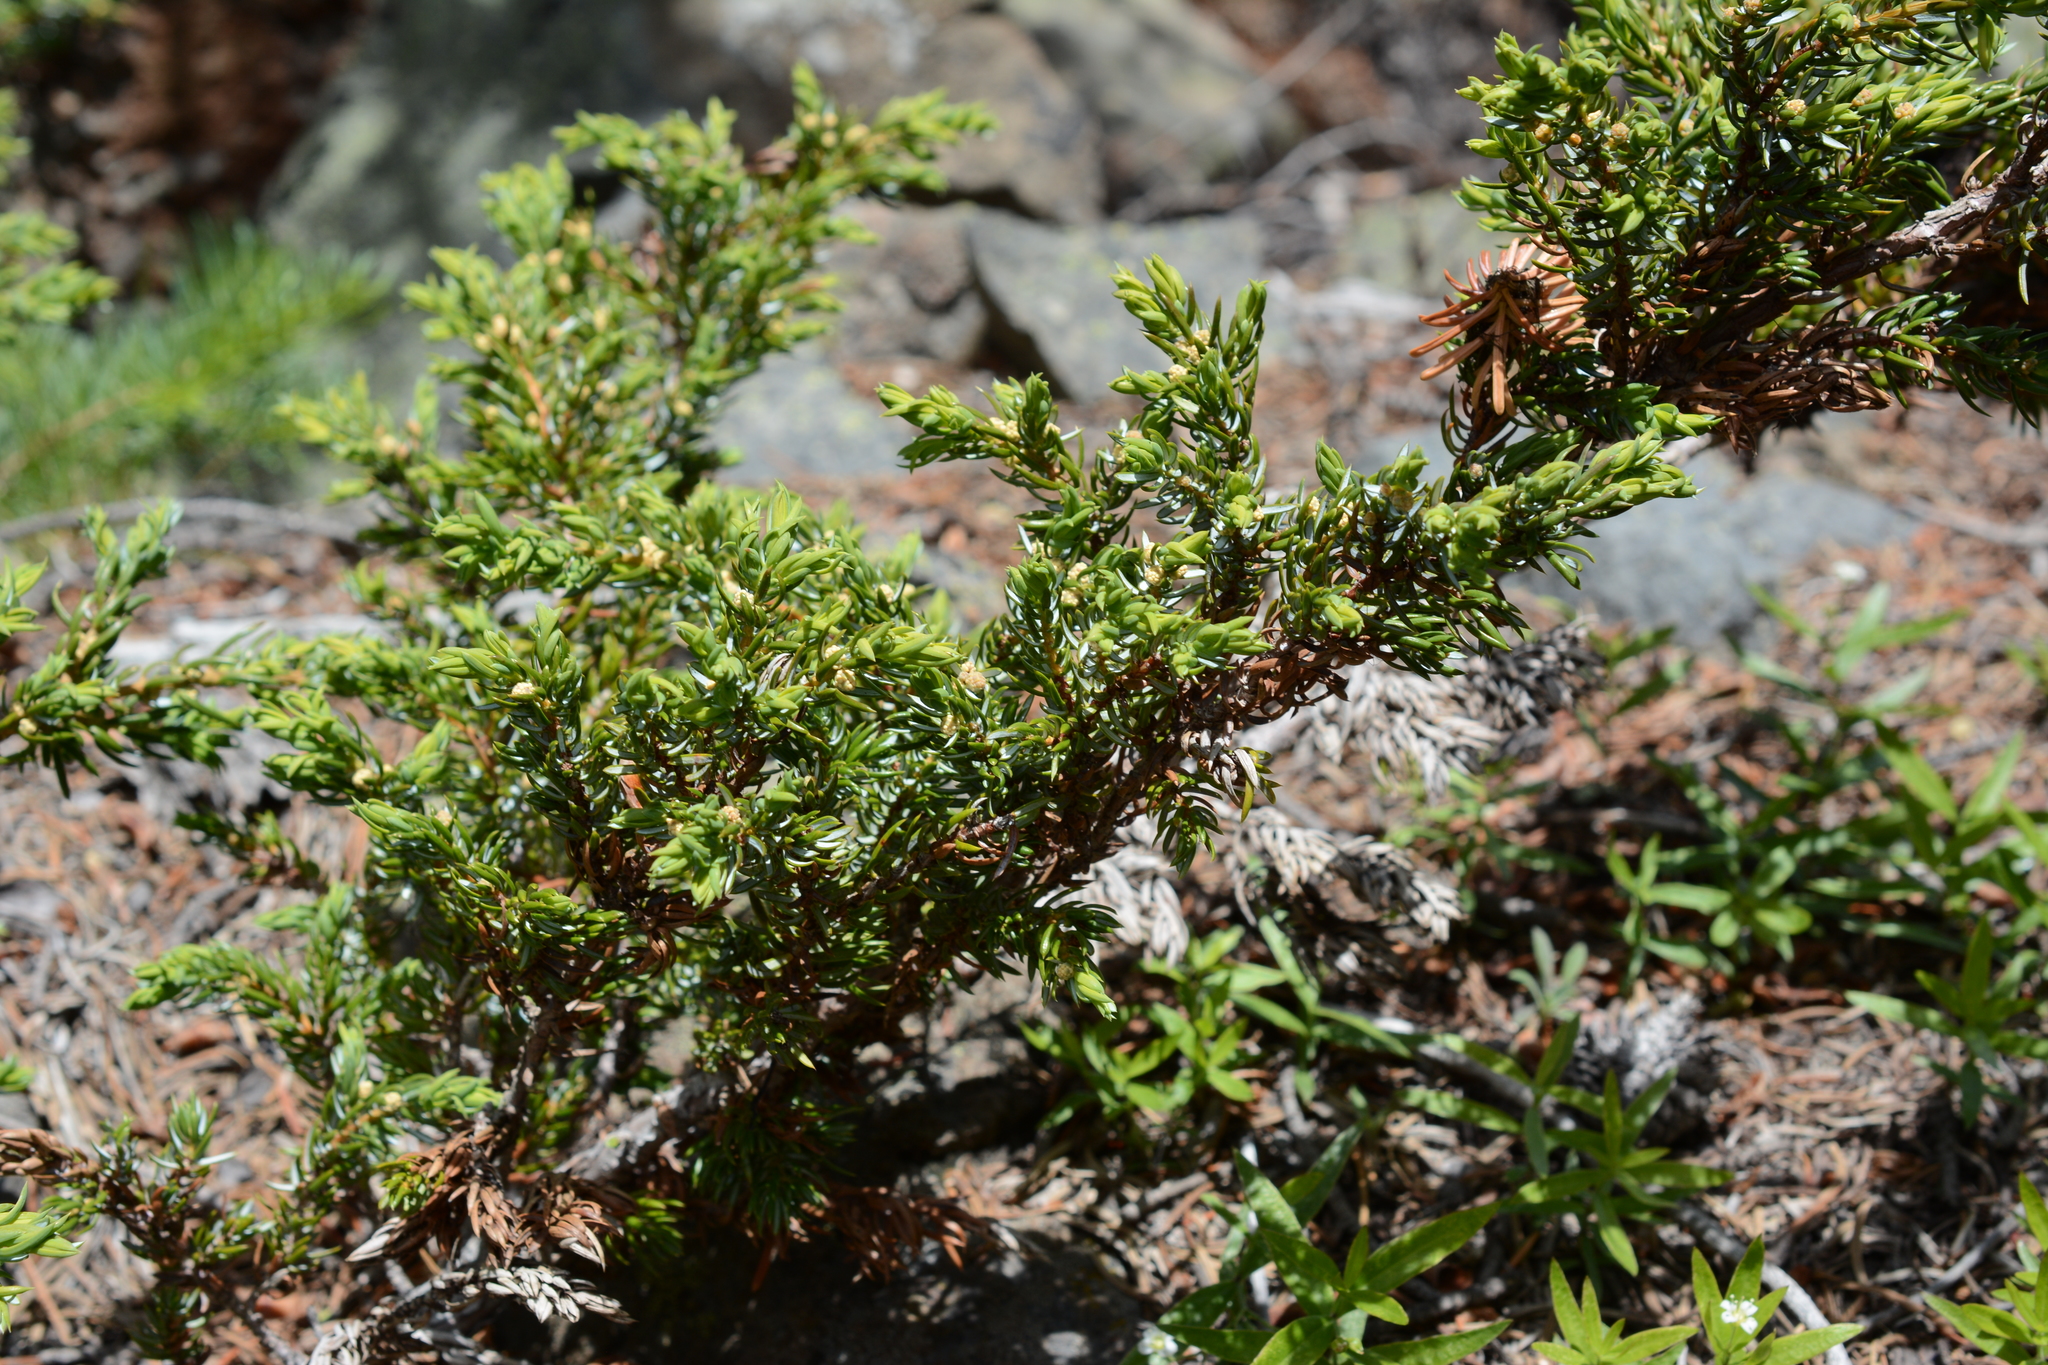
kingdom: Plantae
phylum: Tracheophyta
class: Pinopsida
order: Pinales
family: Cupressaceae
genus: Juniperus
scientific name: Juniperus communis
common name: Common juniper
